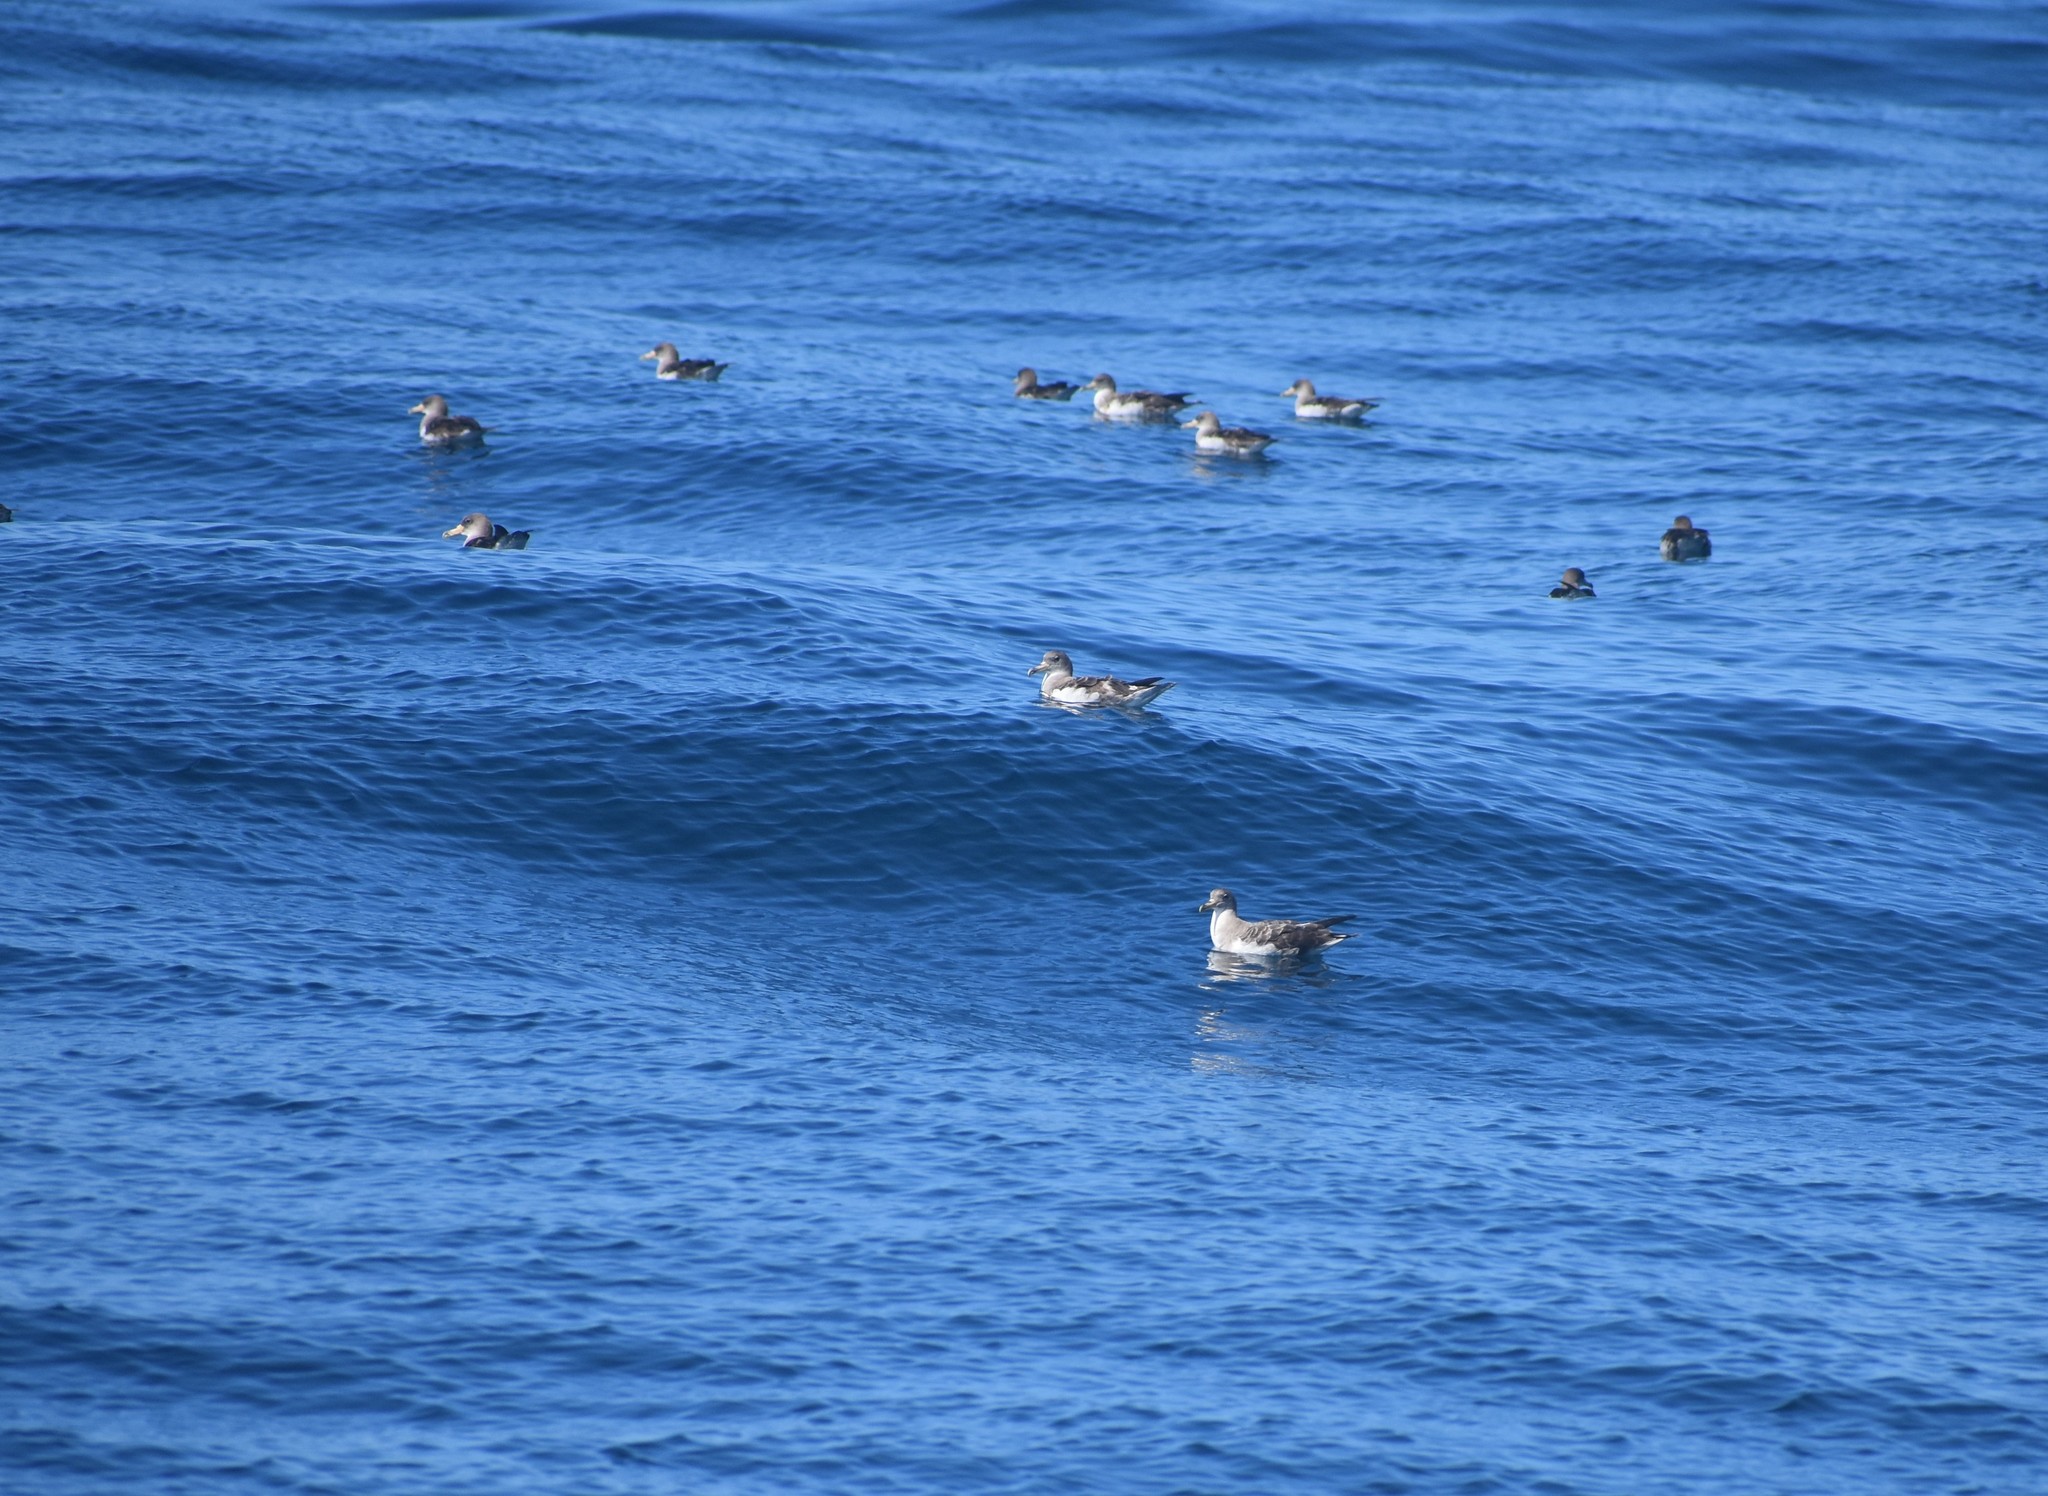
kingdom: Animalia
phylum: Chordata
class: Aves
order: Procellariiformes
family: Procellariidae
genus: Calonectris
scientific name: Calonectris diomedea
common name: Cory's shearwater
